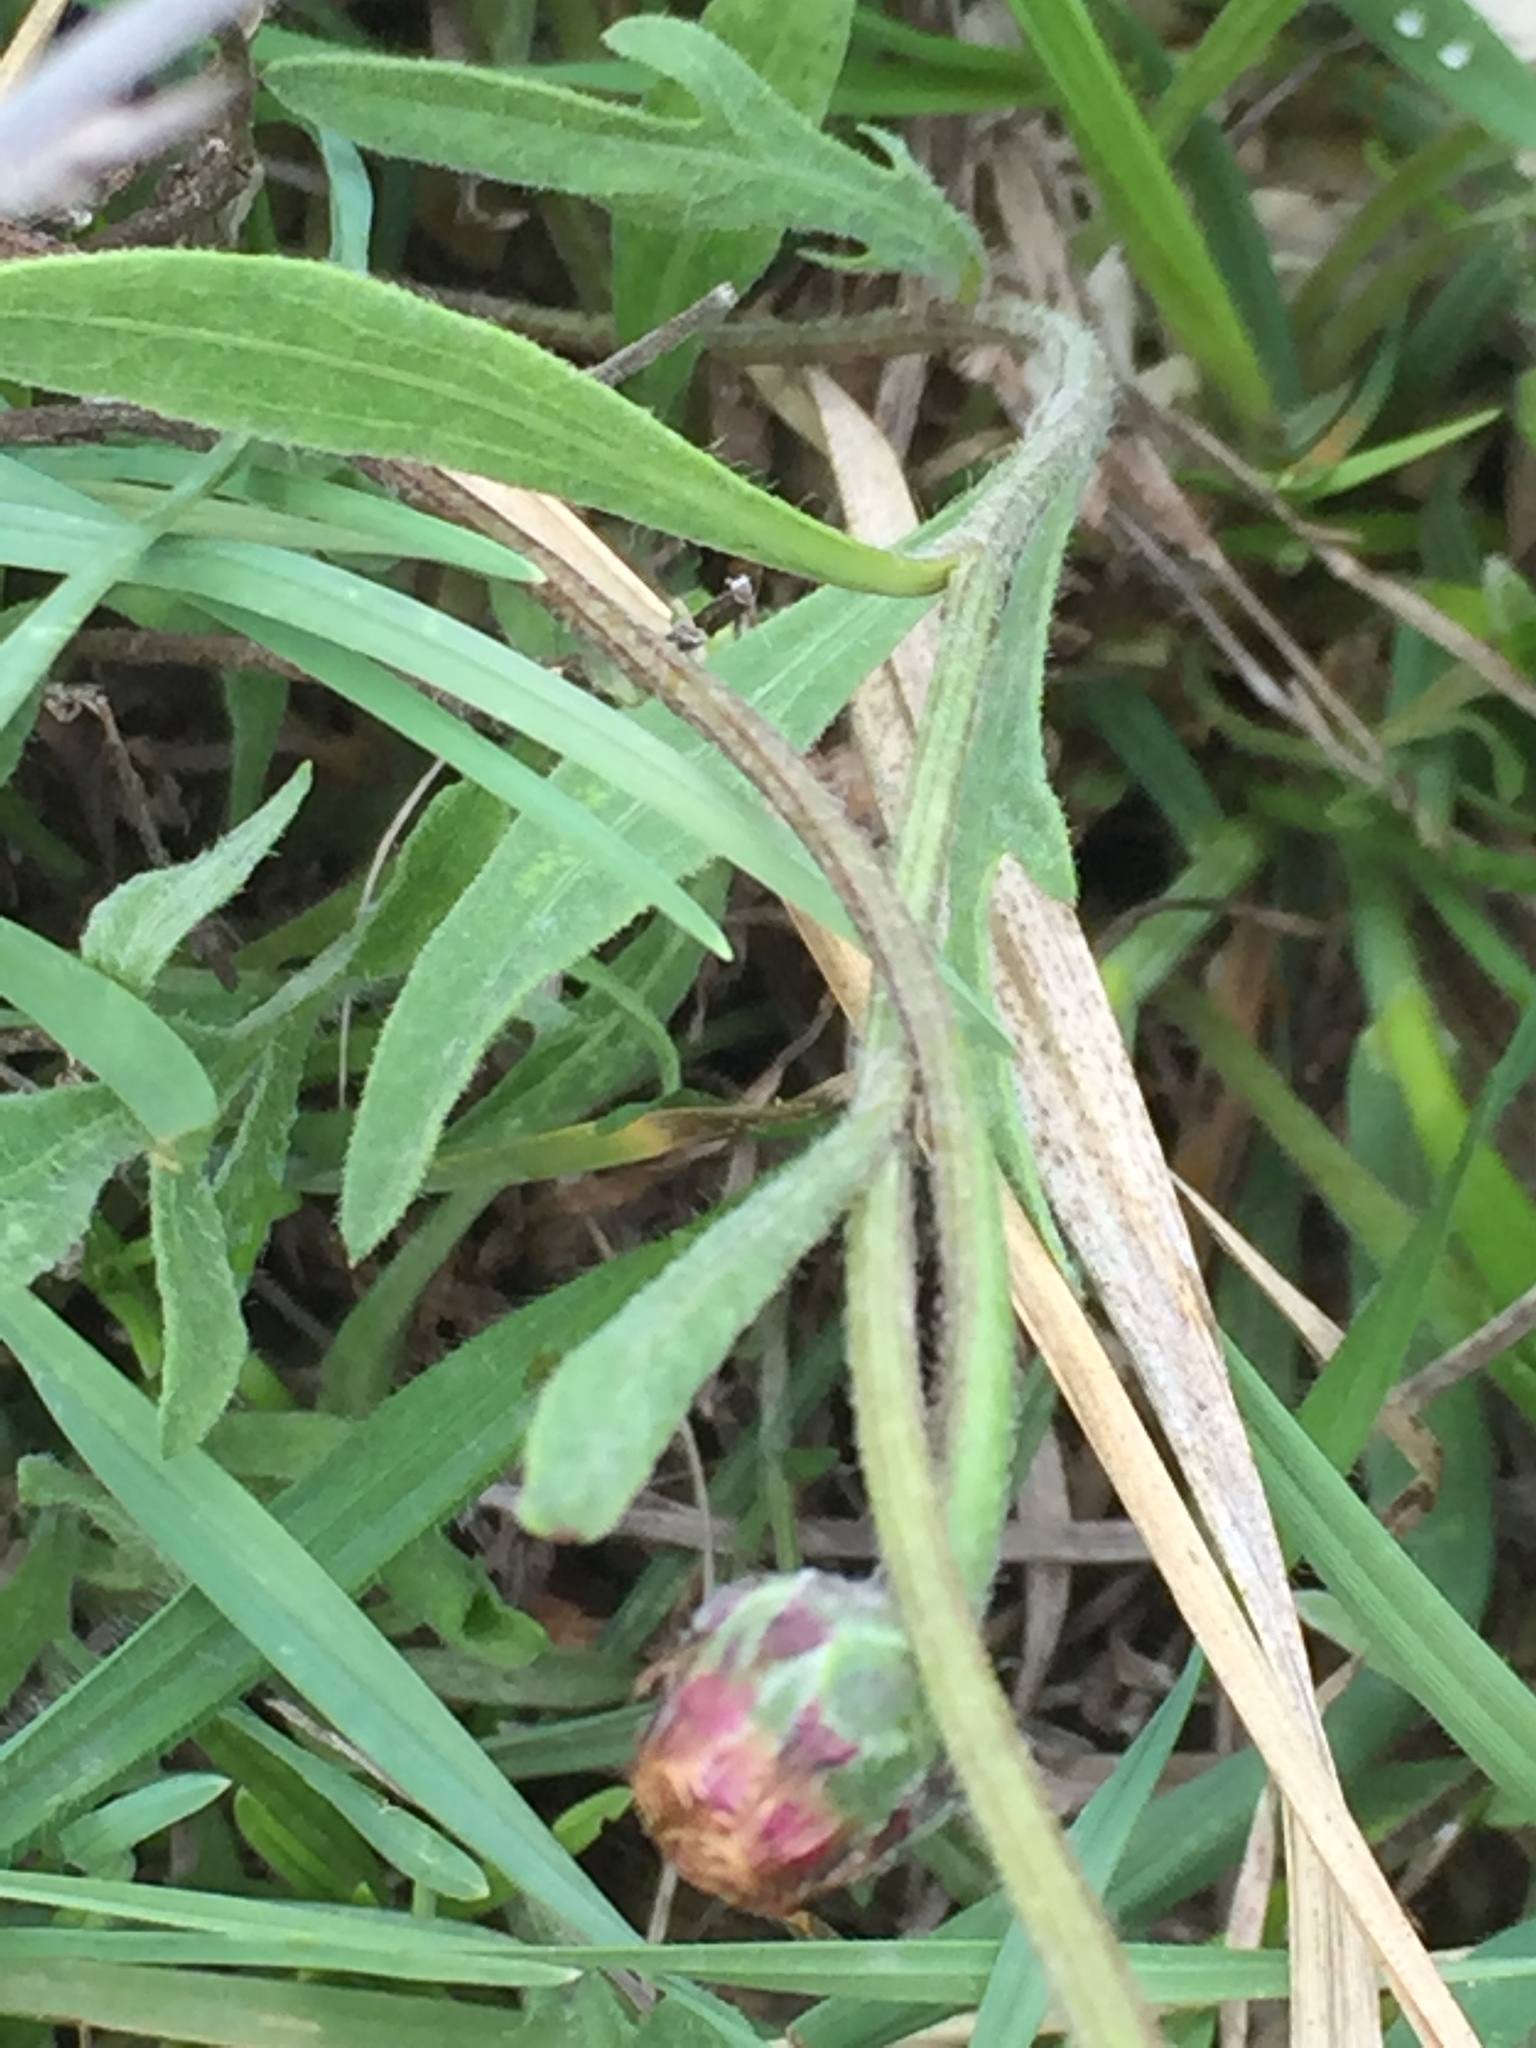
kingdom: Plantae
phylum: Tracheophyta
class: Magnoliopsida
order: Asterales
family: Asteraceae
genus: Psephellus
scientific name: Psephellus marschallianus
